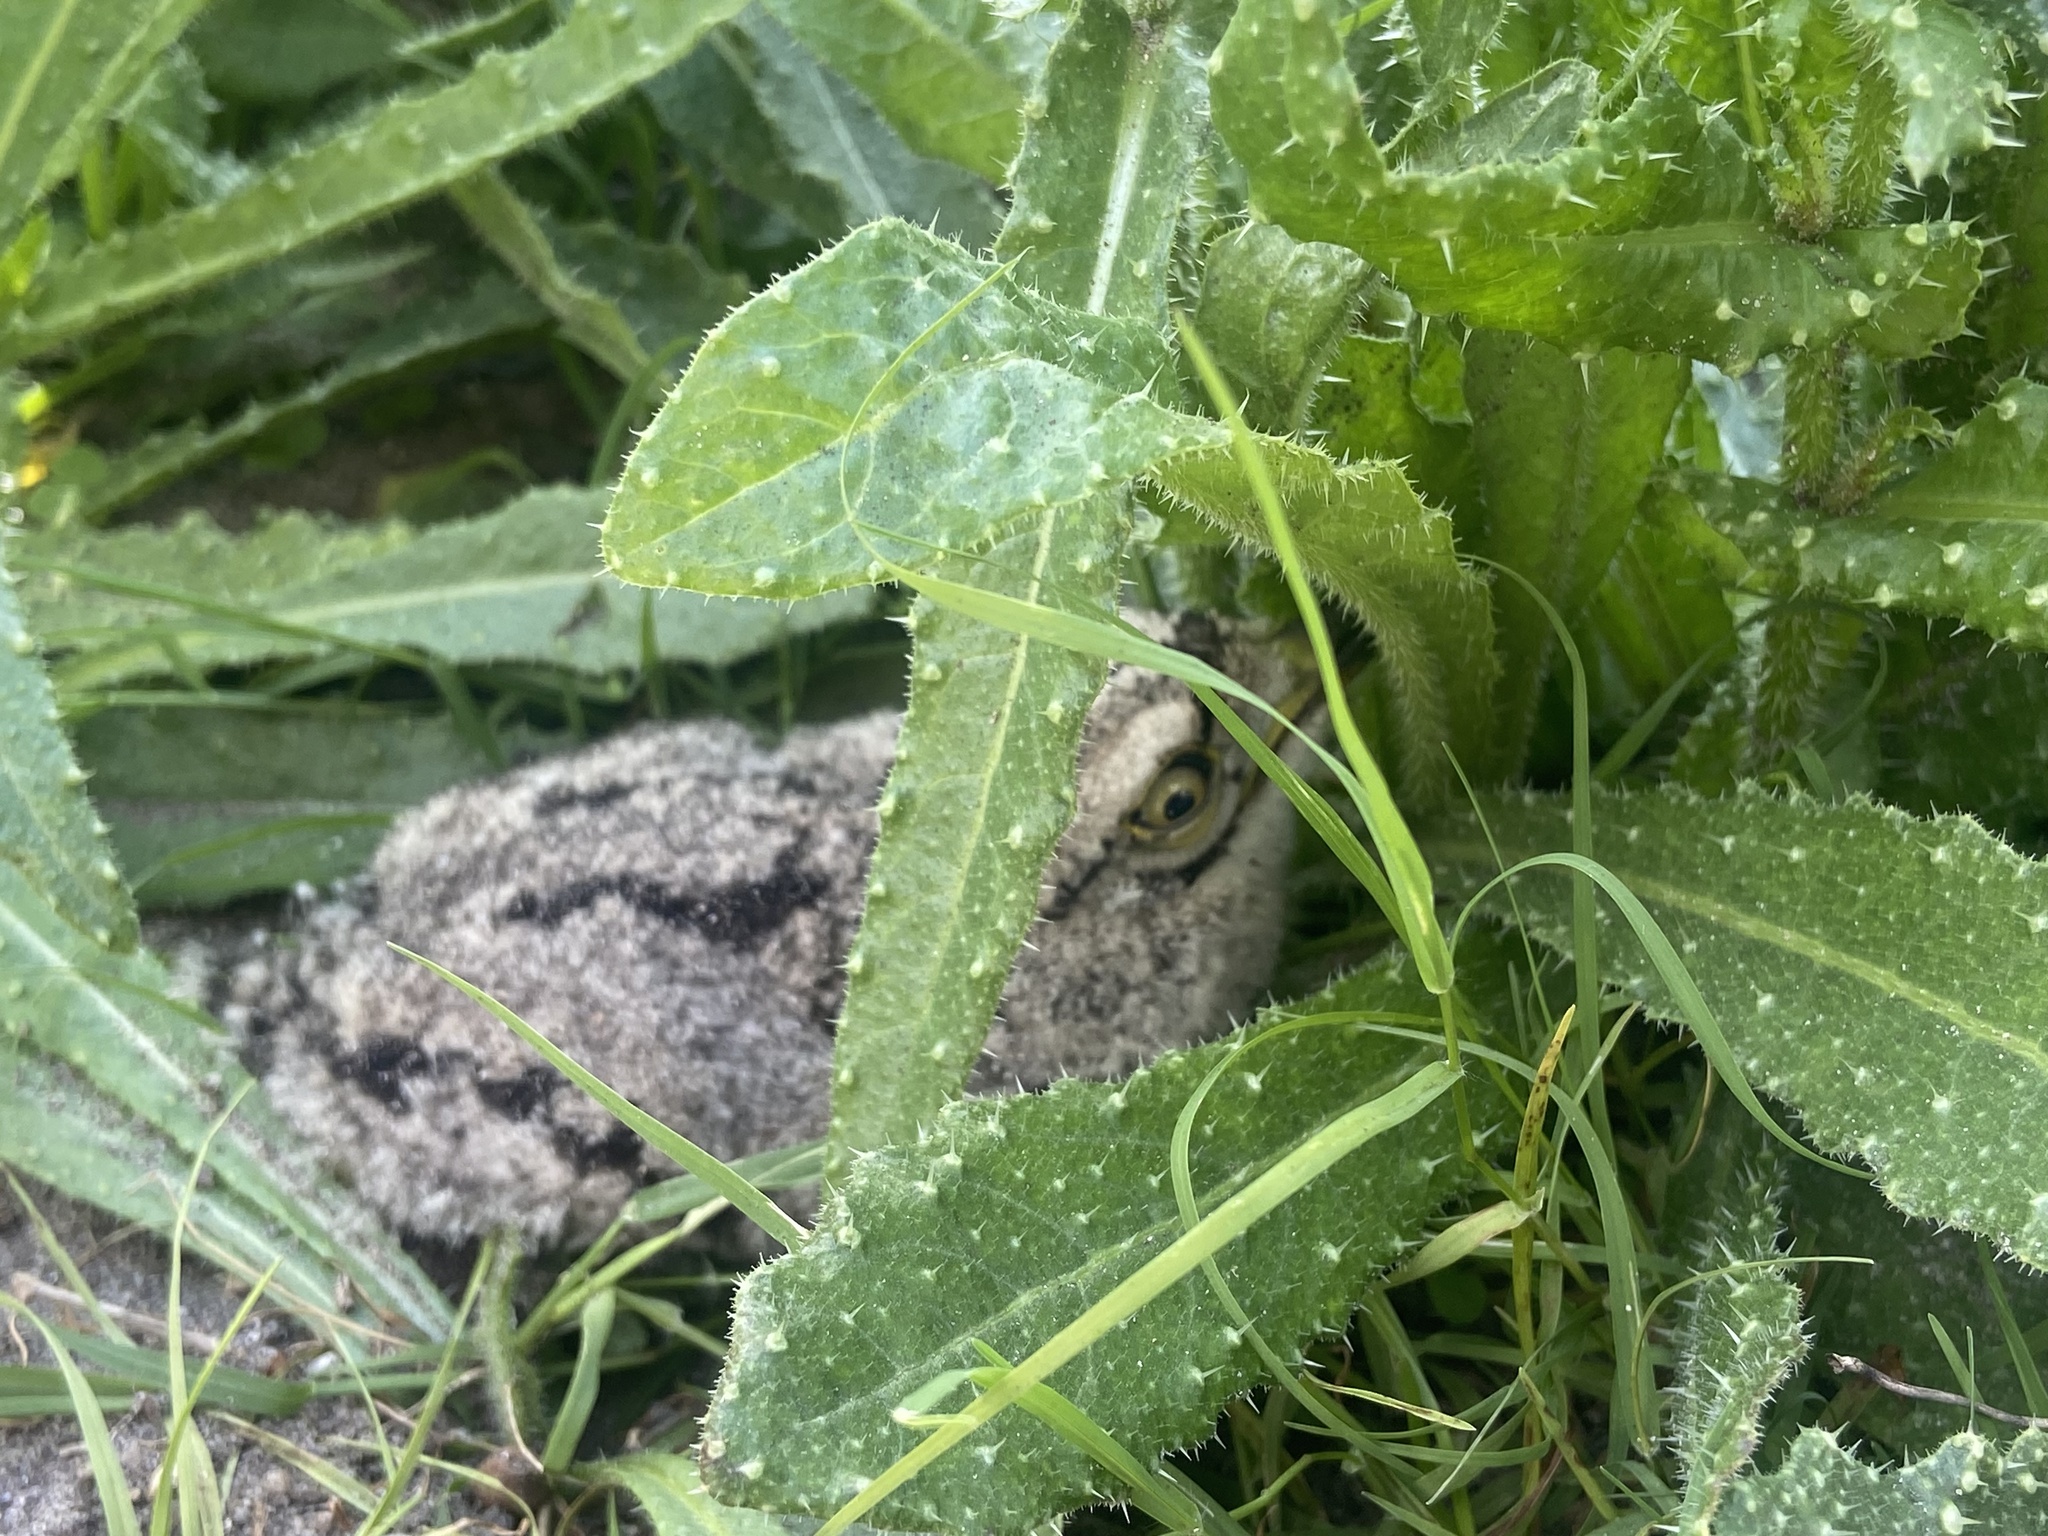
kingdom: Animalia
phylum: Chordata
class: Aves
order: Charadriiformes
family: Burhinidae
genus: Burhinus
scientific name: Burhinus capensis
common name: Spotted thick-knee
